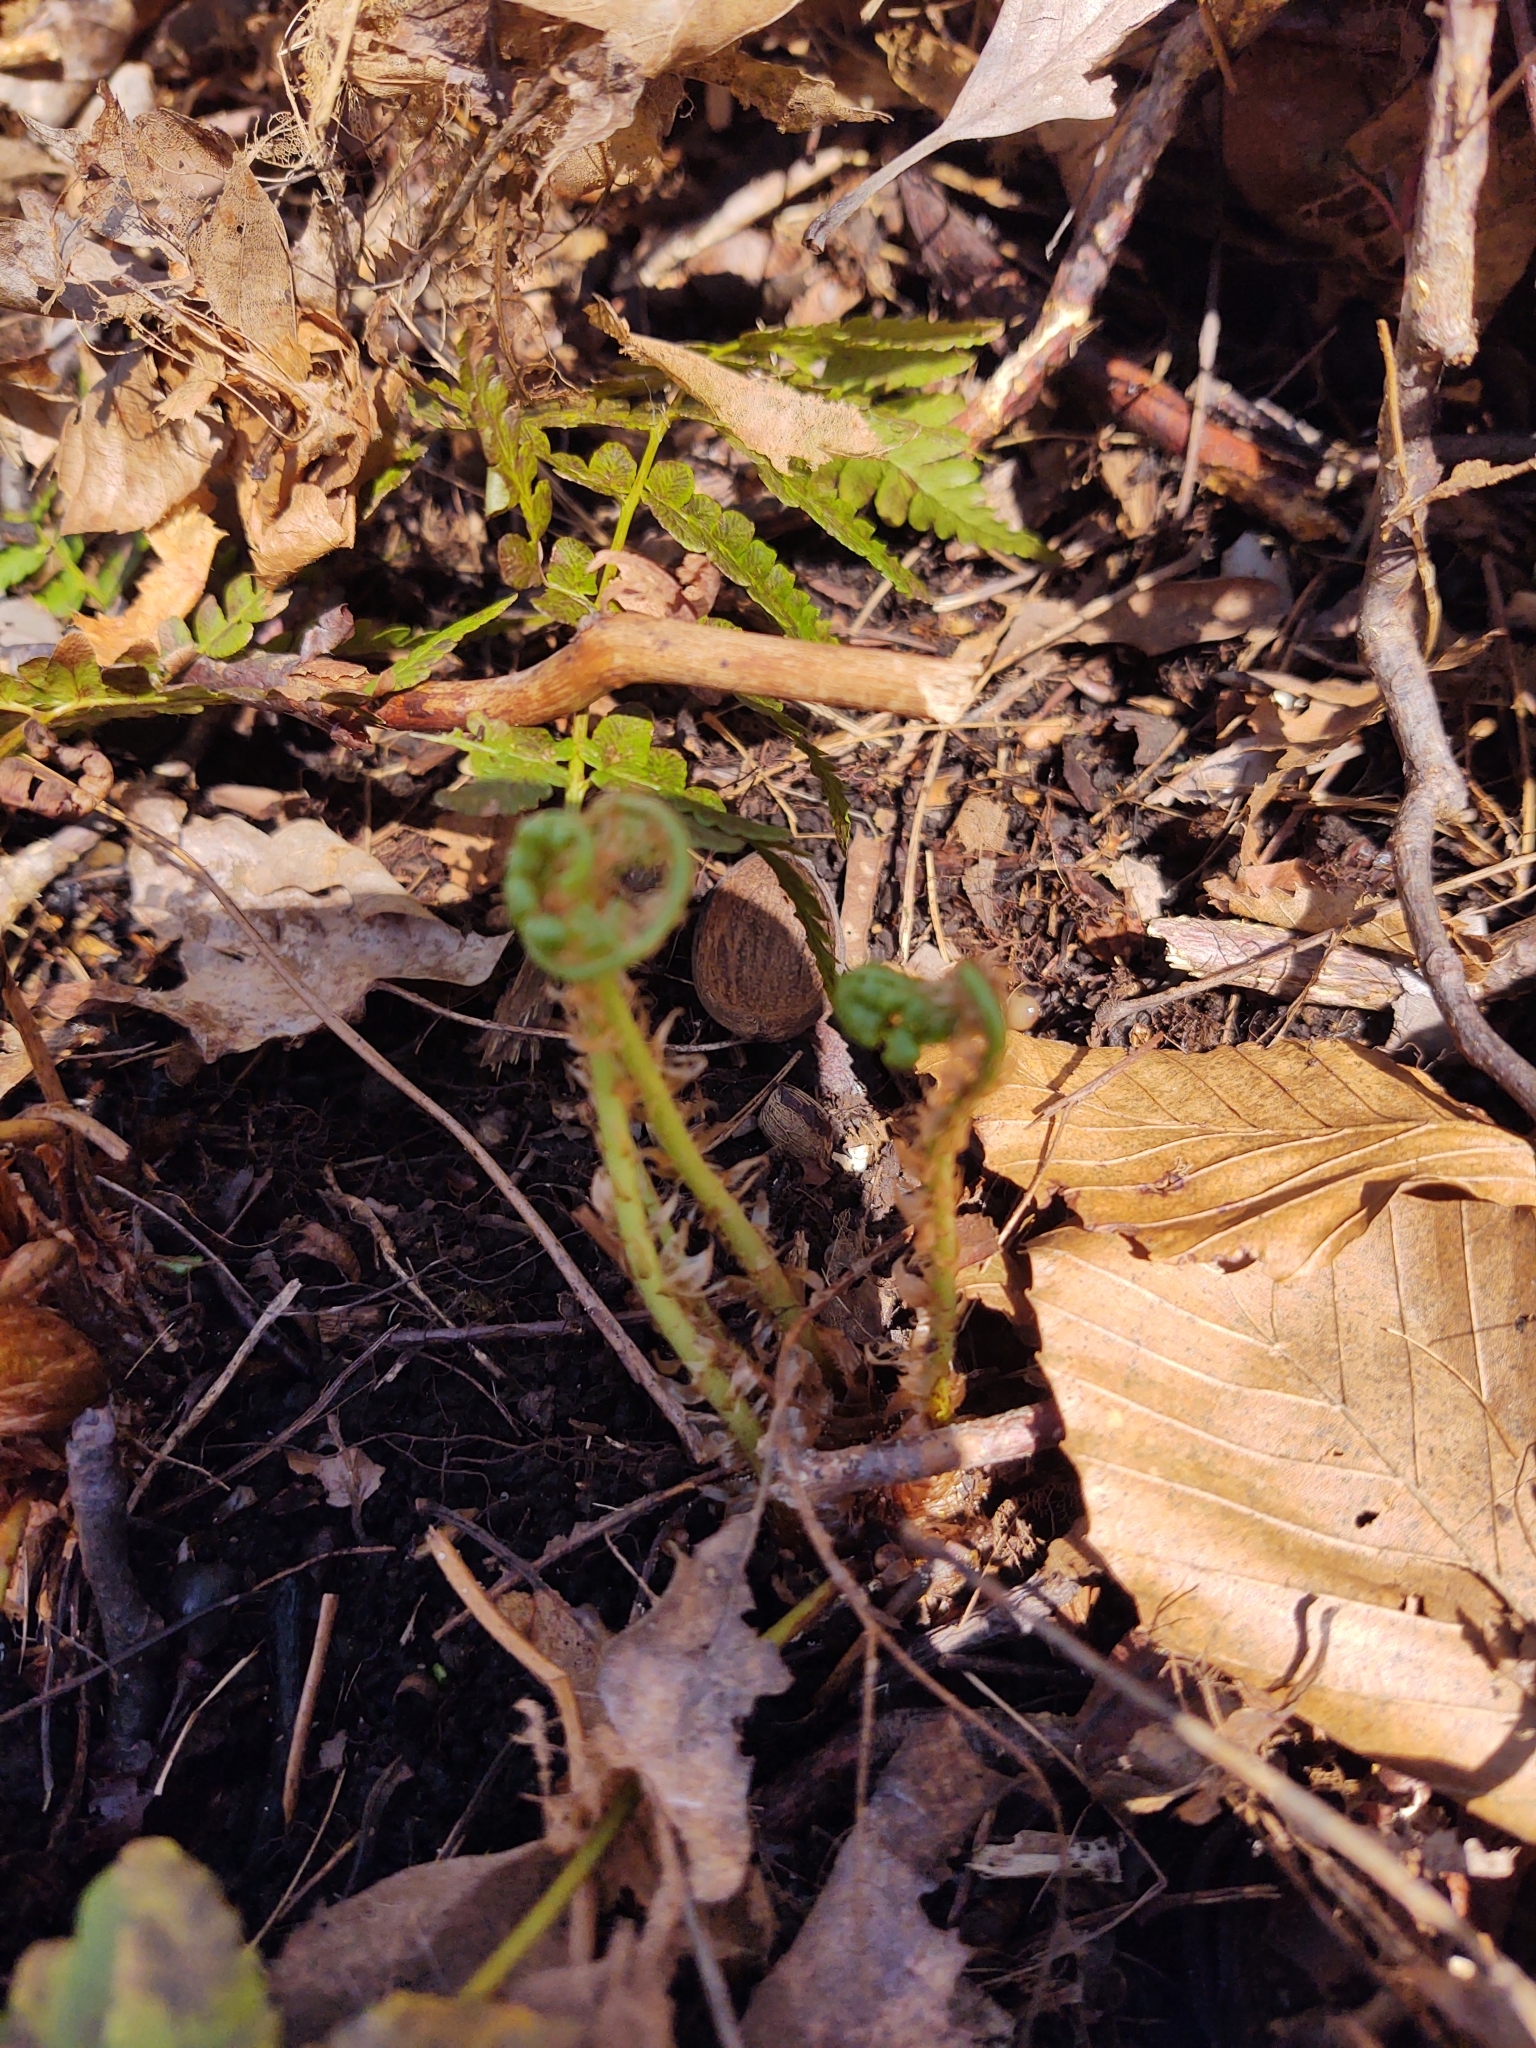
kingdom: Plantae
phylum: Tracheophyta
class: Polypodiopsida
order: Polypodiales
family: Dryopteridaceae
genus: Dryopteris
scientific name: Dryopteris marginalis
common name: Marginal wood fern
